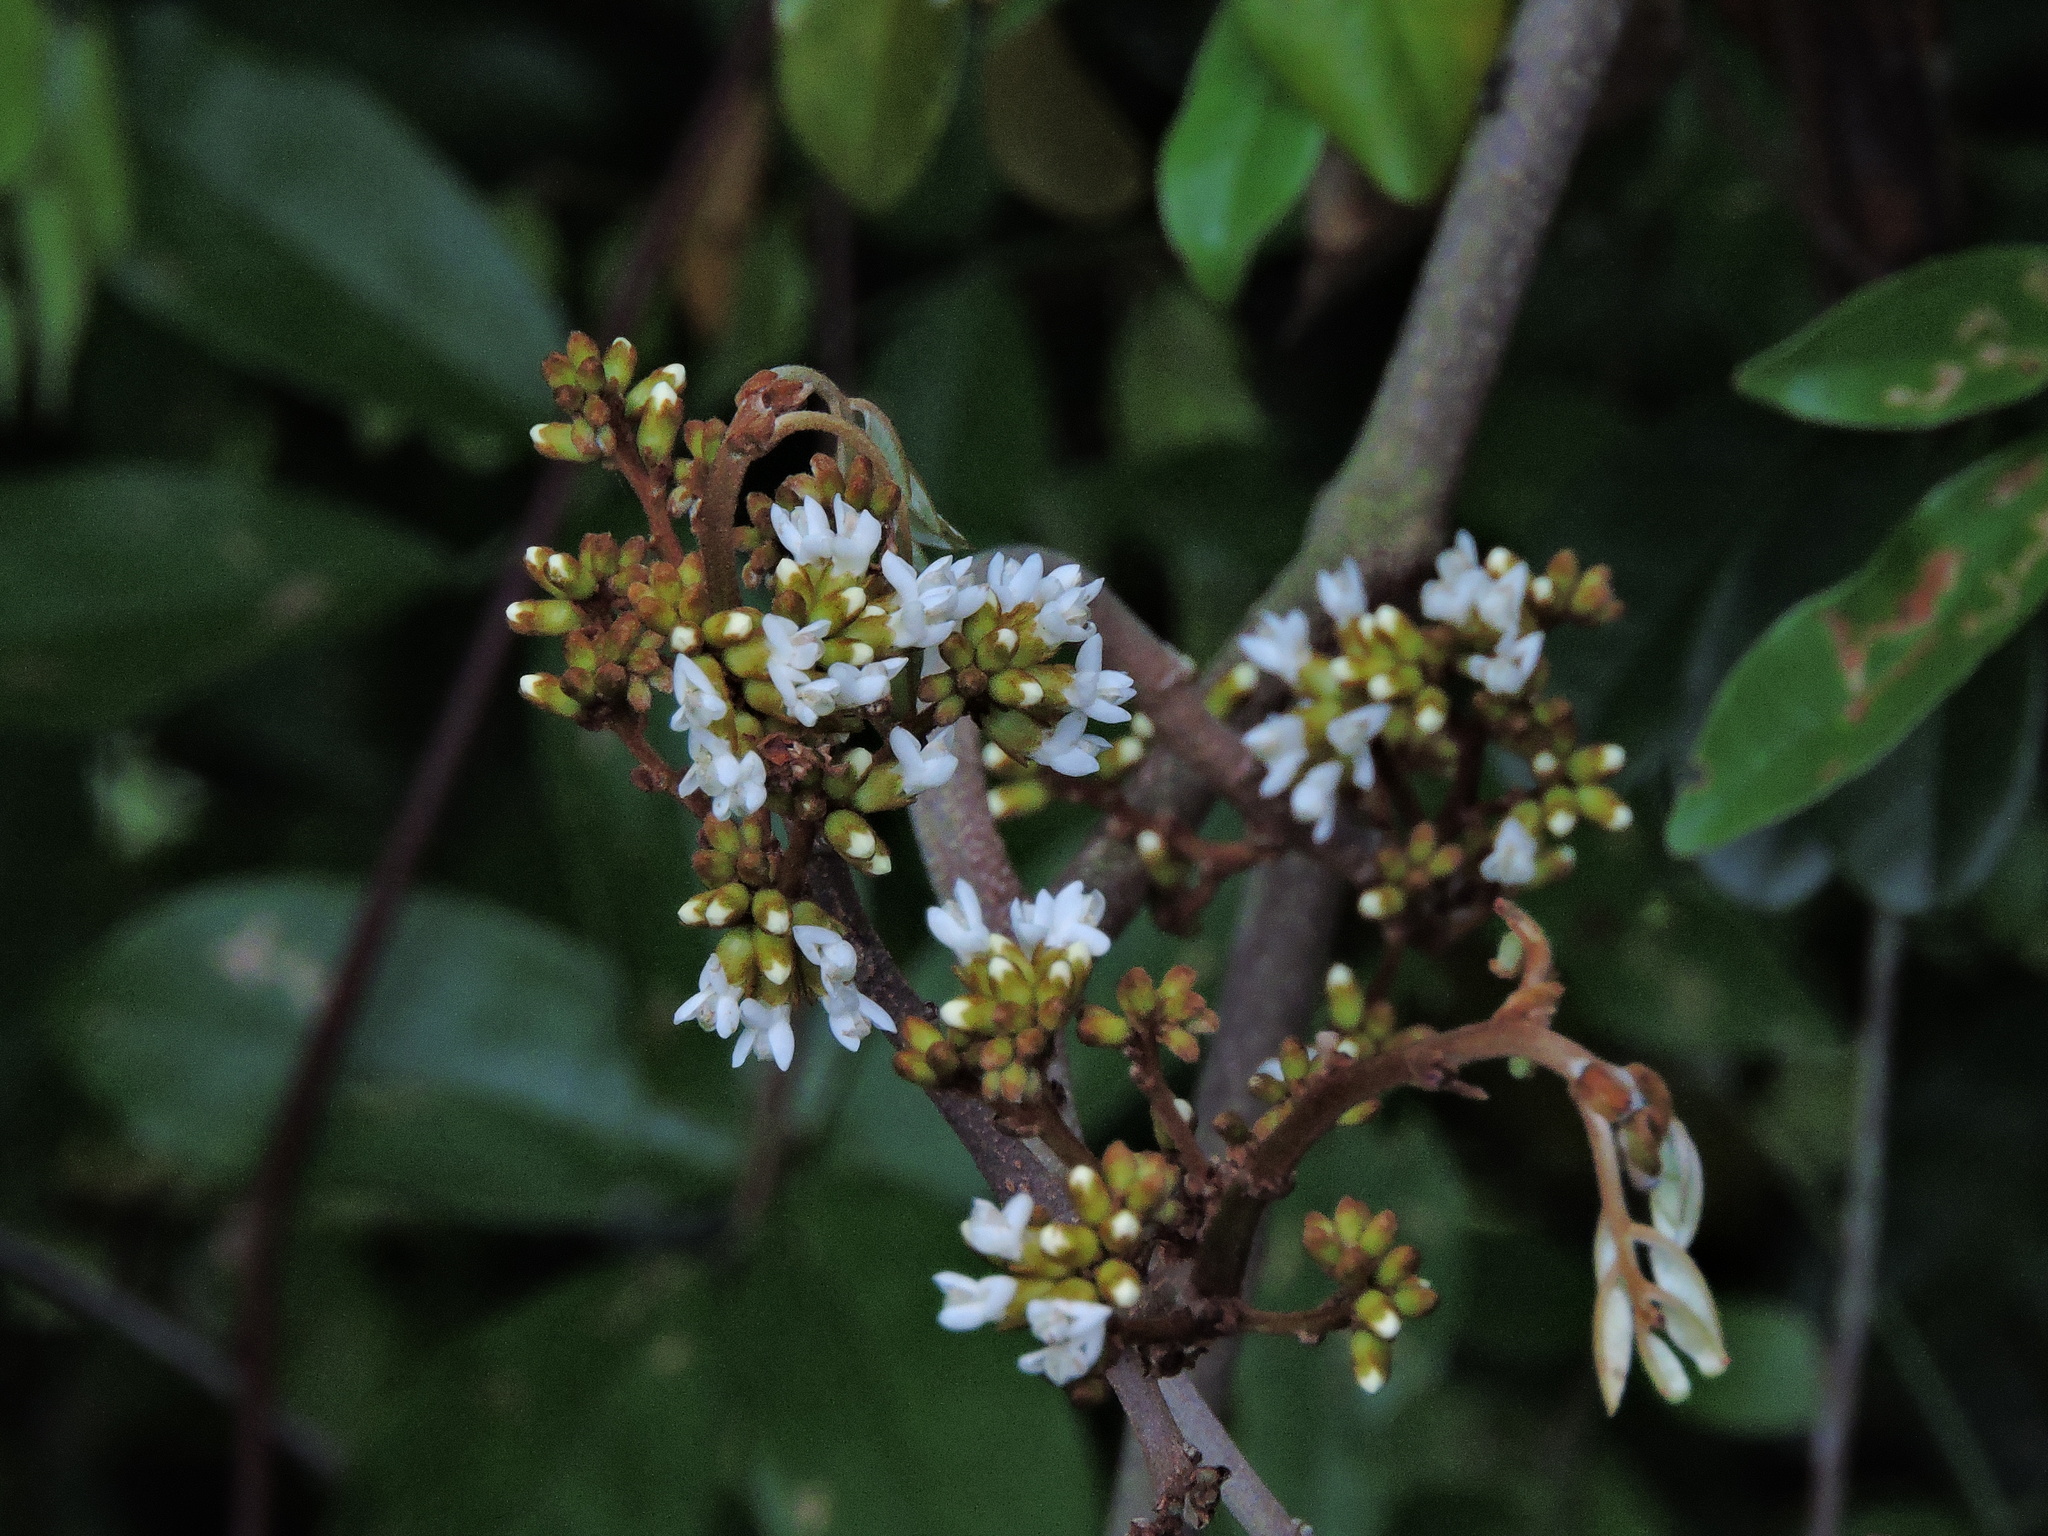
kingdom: Plantae
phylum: Tracheophyta
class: Magnoliopsida
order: Fabales
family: Fabaceae
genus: Dalbergia
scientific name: Dalbergia benthamii
